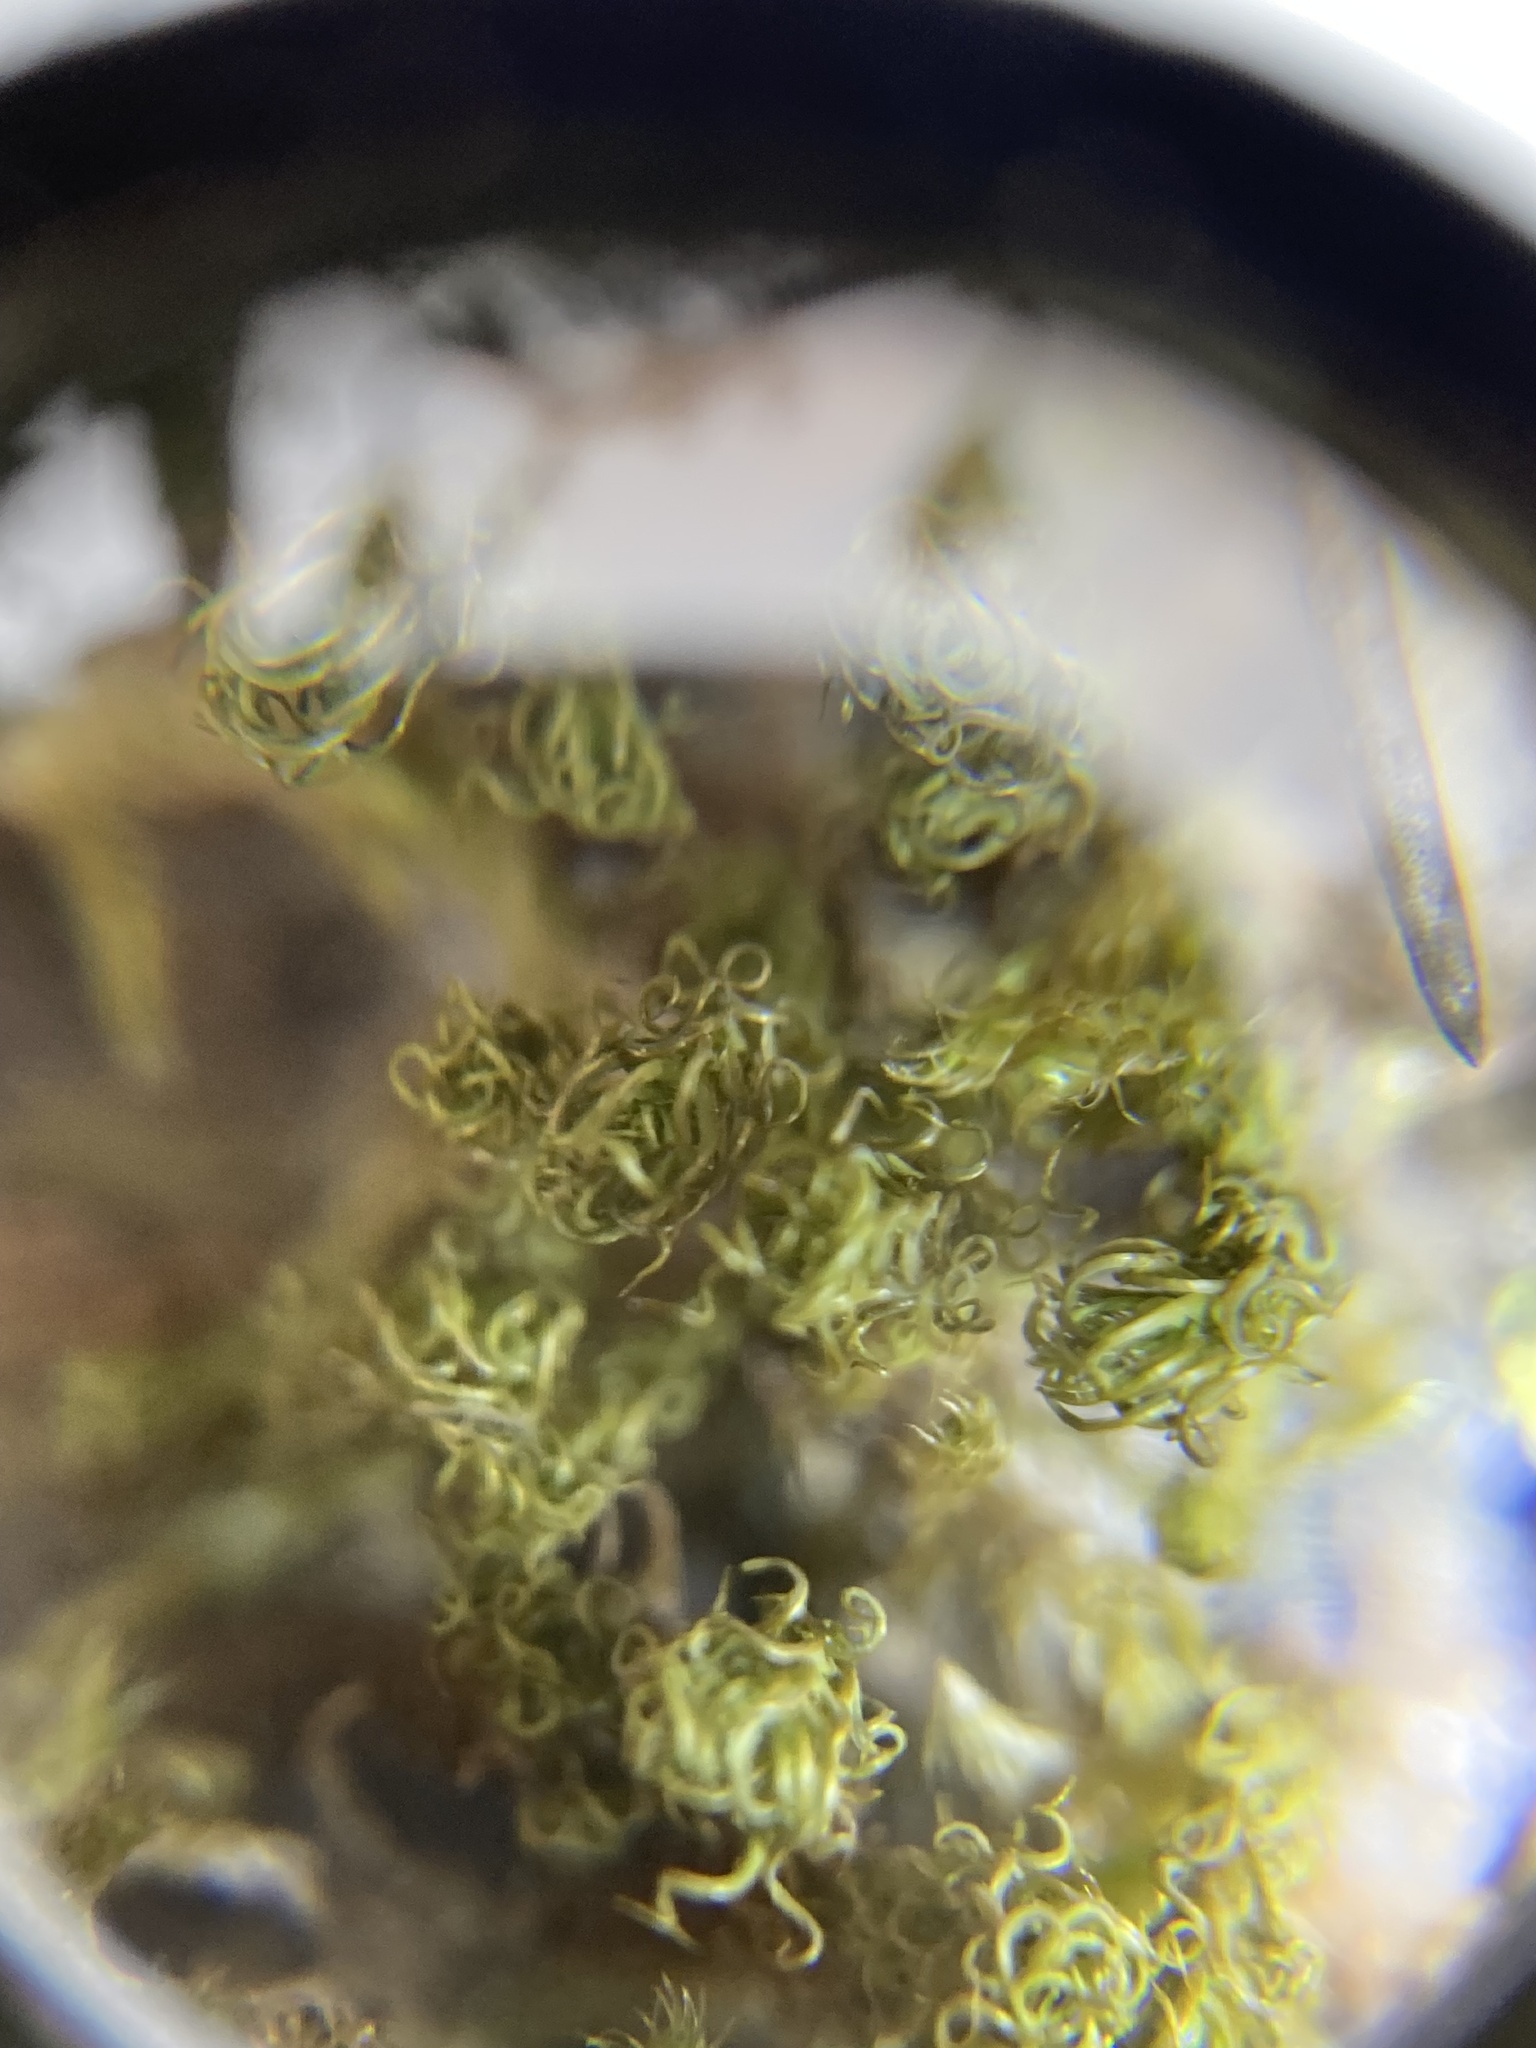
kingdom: Plantae
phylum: Bryophyta
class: Bryopsida
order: Pottiales
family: Pottiaceae
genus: Pleurochaete
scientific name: Pleurochaete squarrosa
